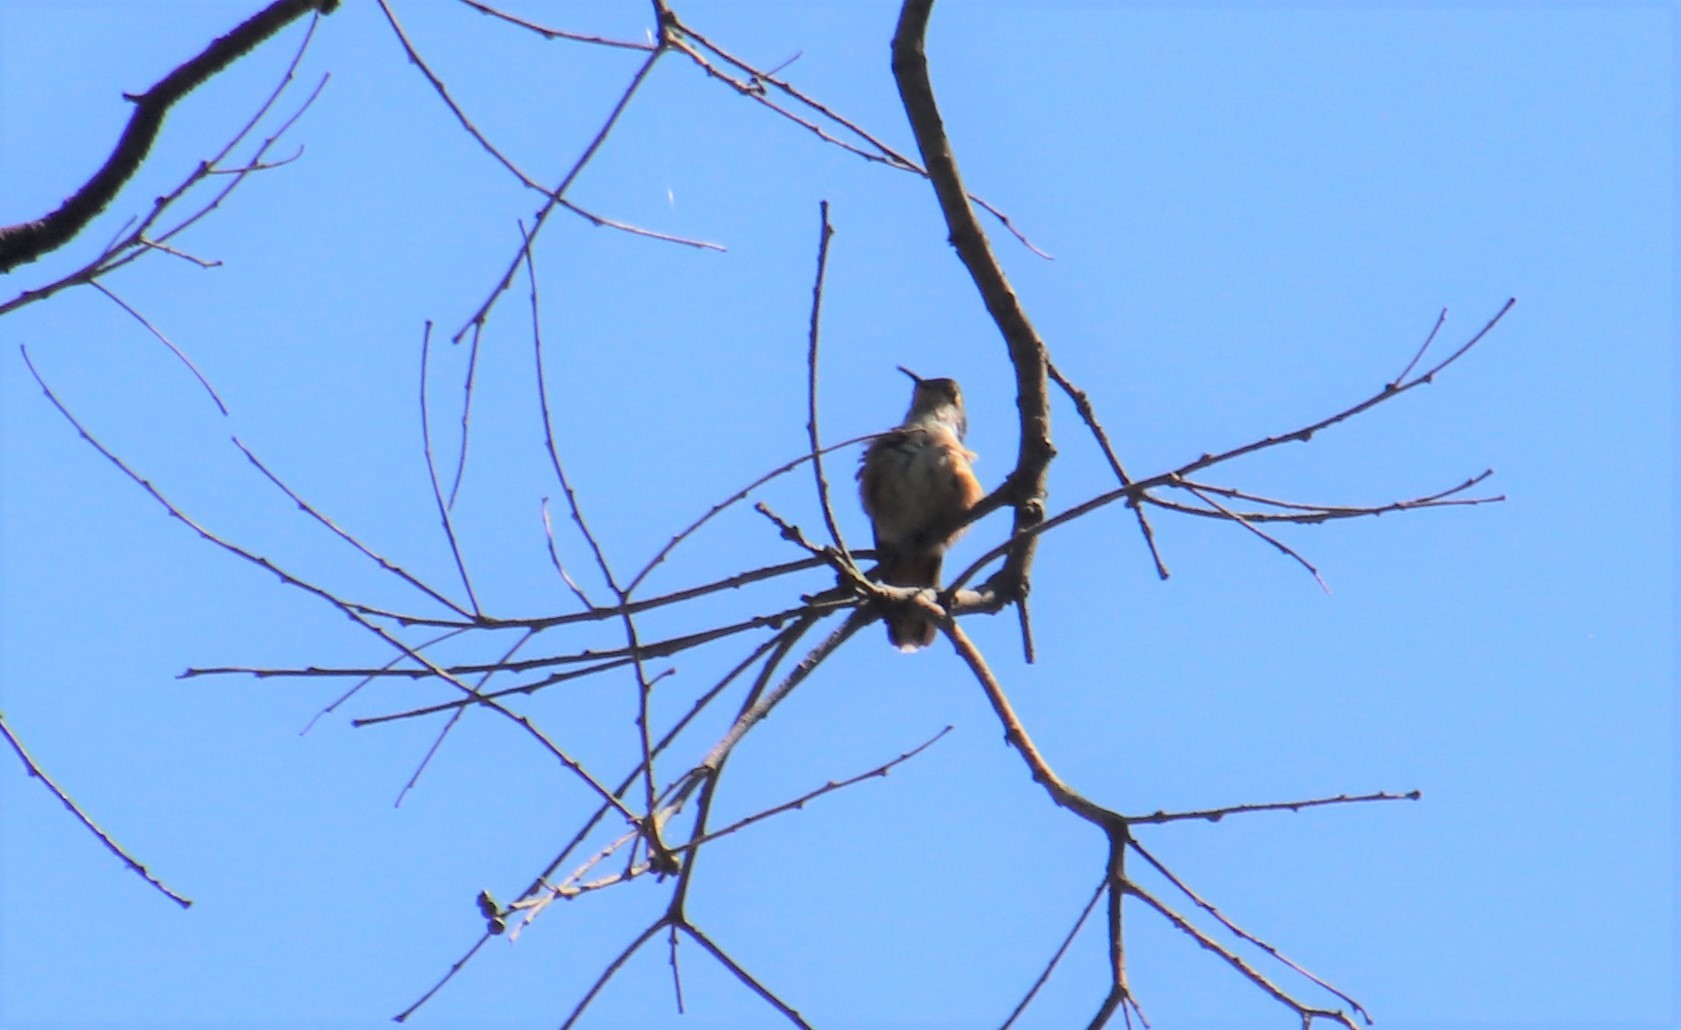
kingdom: Animalia
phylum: Chordata
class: Aves
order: Apodiformes
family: Trochilidae
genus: Selasphorus
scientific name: Selasphorus
